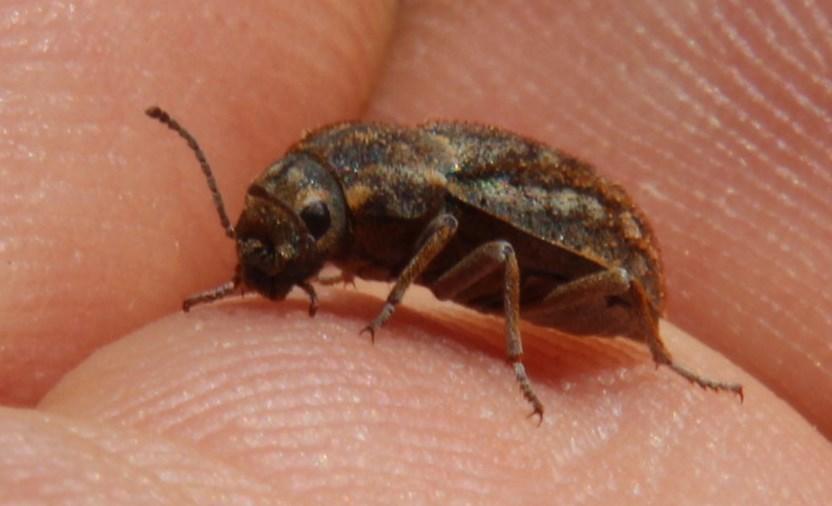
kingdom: Animalia
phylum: Arthropoda
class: Insecta
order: Coleoptera
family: Tenebrionidae
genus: Somaticus
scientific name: Somaticus albomaculatus
